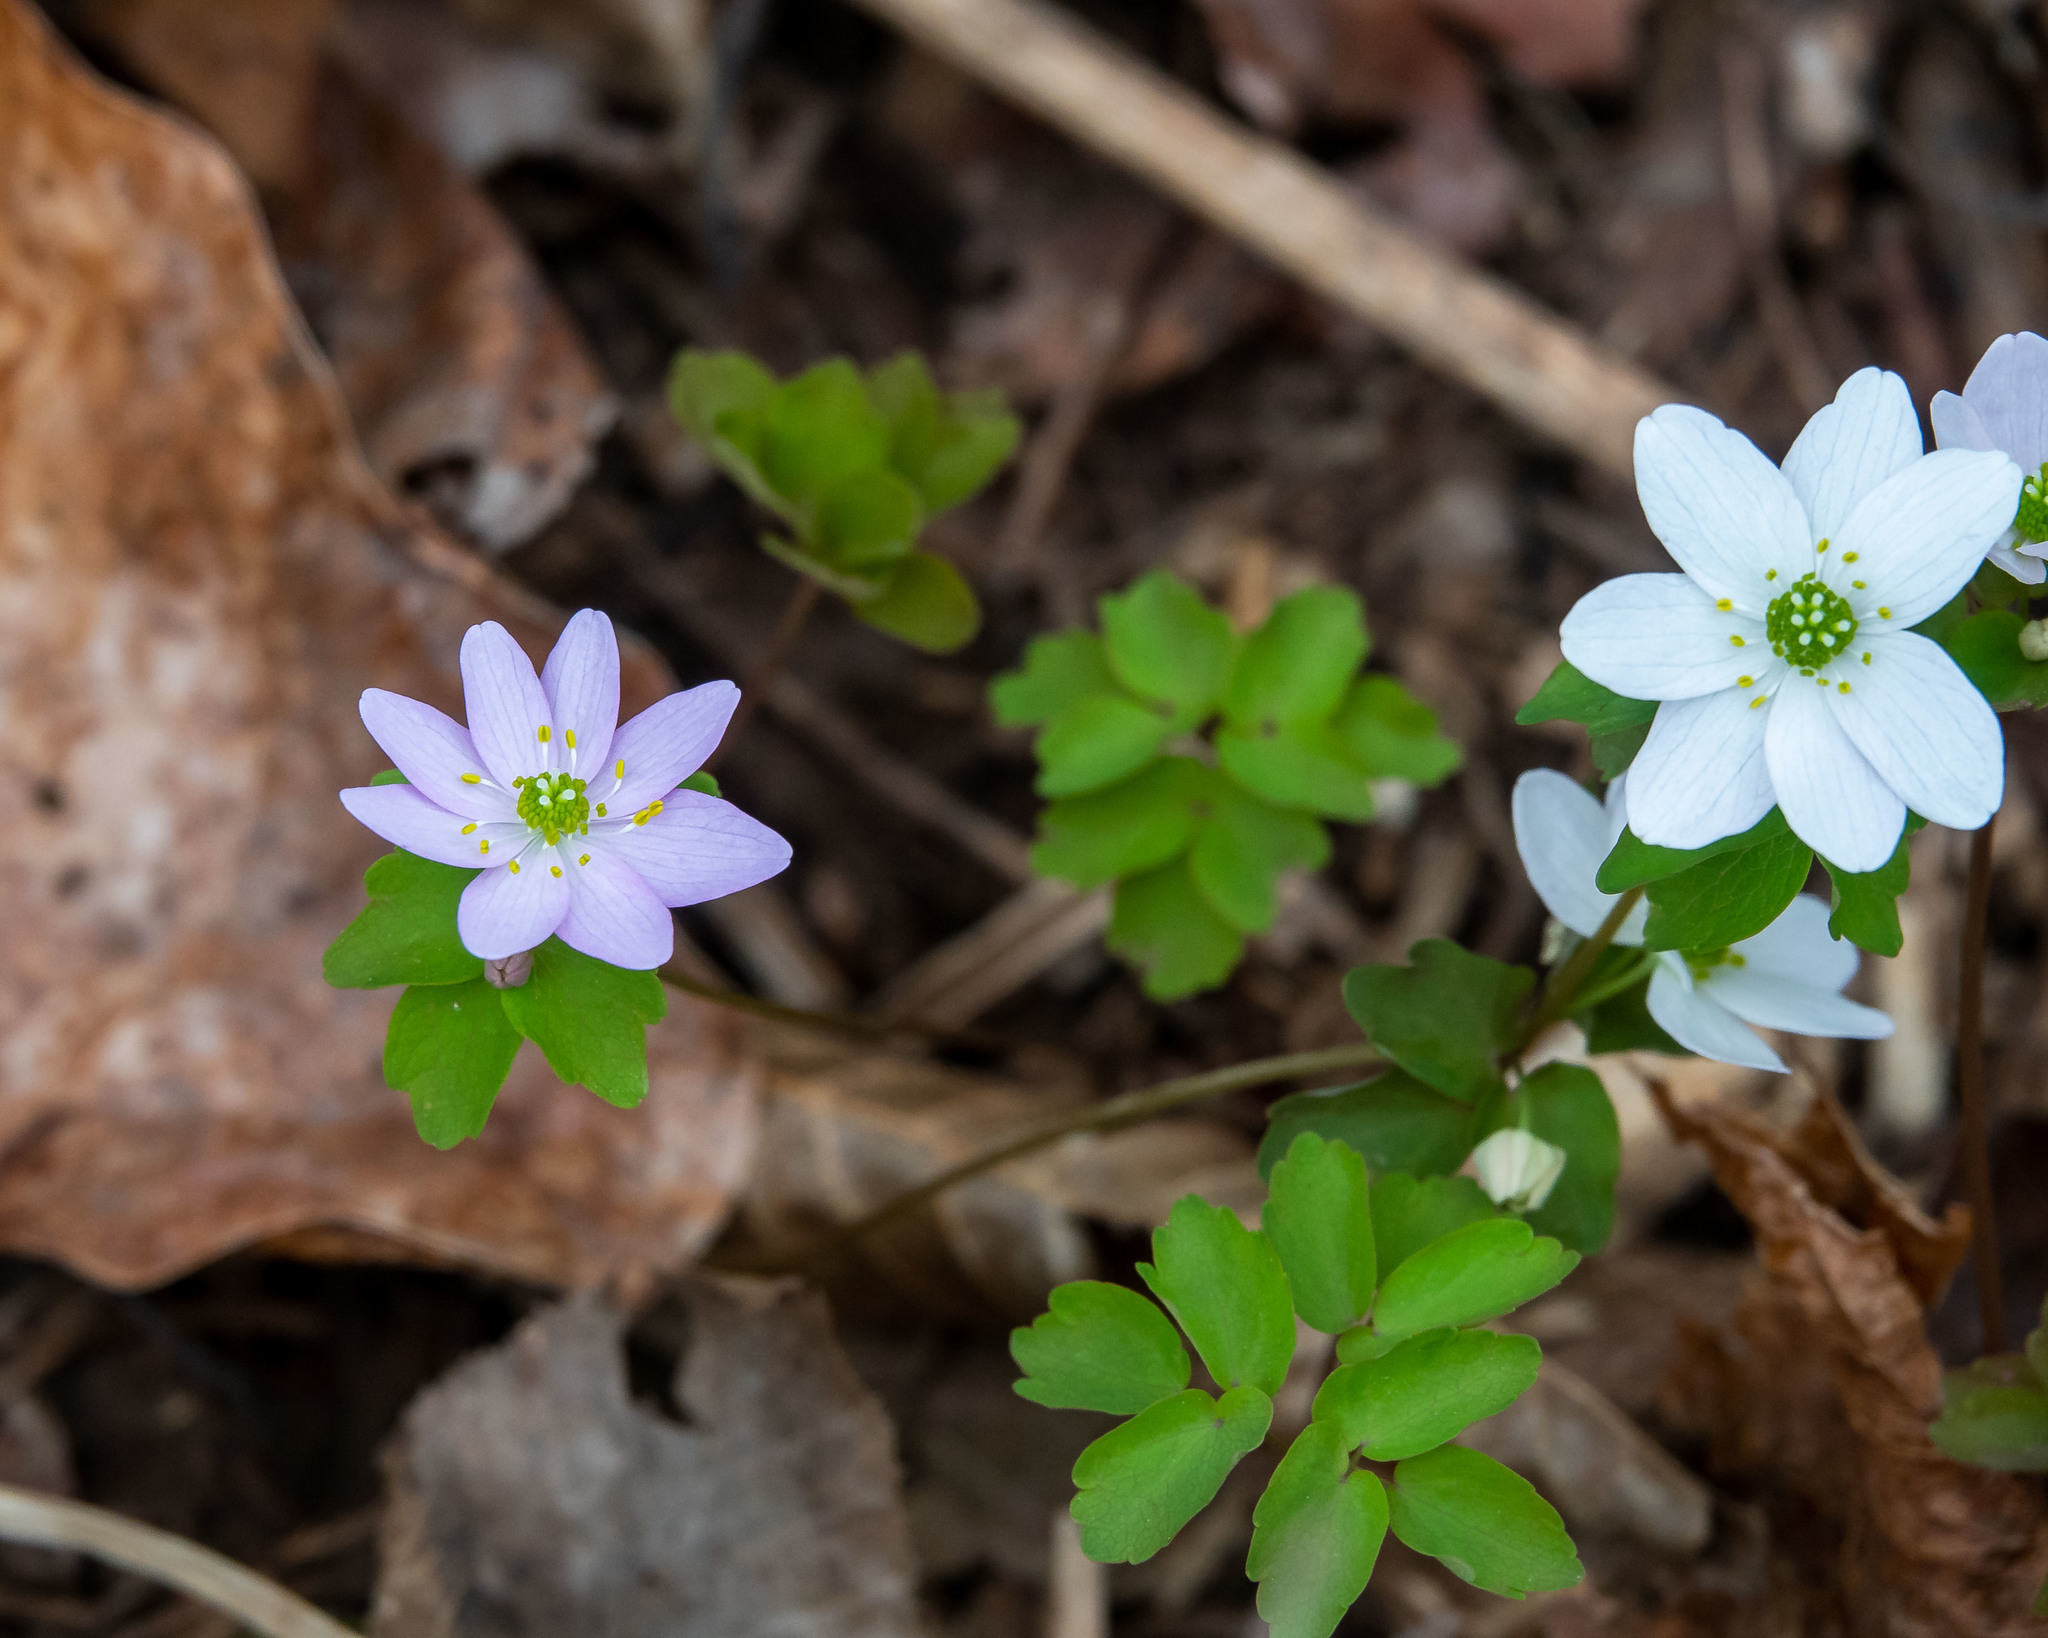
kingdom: Plantae
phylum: Tracheophyta
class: Magnoliopsida
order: Ranunculales
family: Ranunculaceae
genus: Thalictrum
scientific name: Thalictrum thalictroides
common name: Rue-anemone
